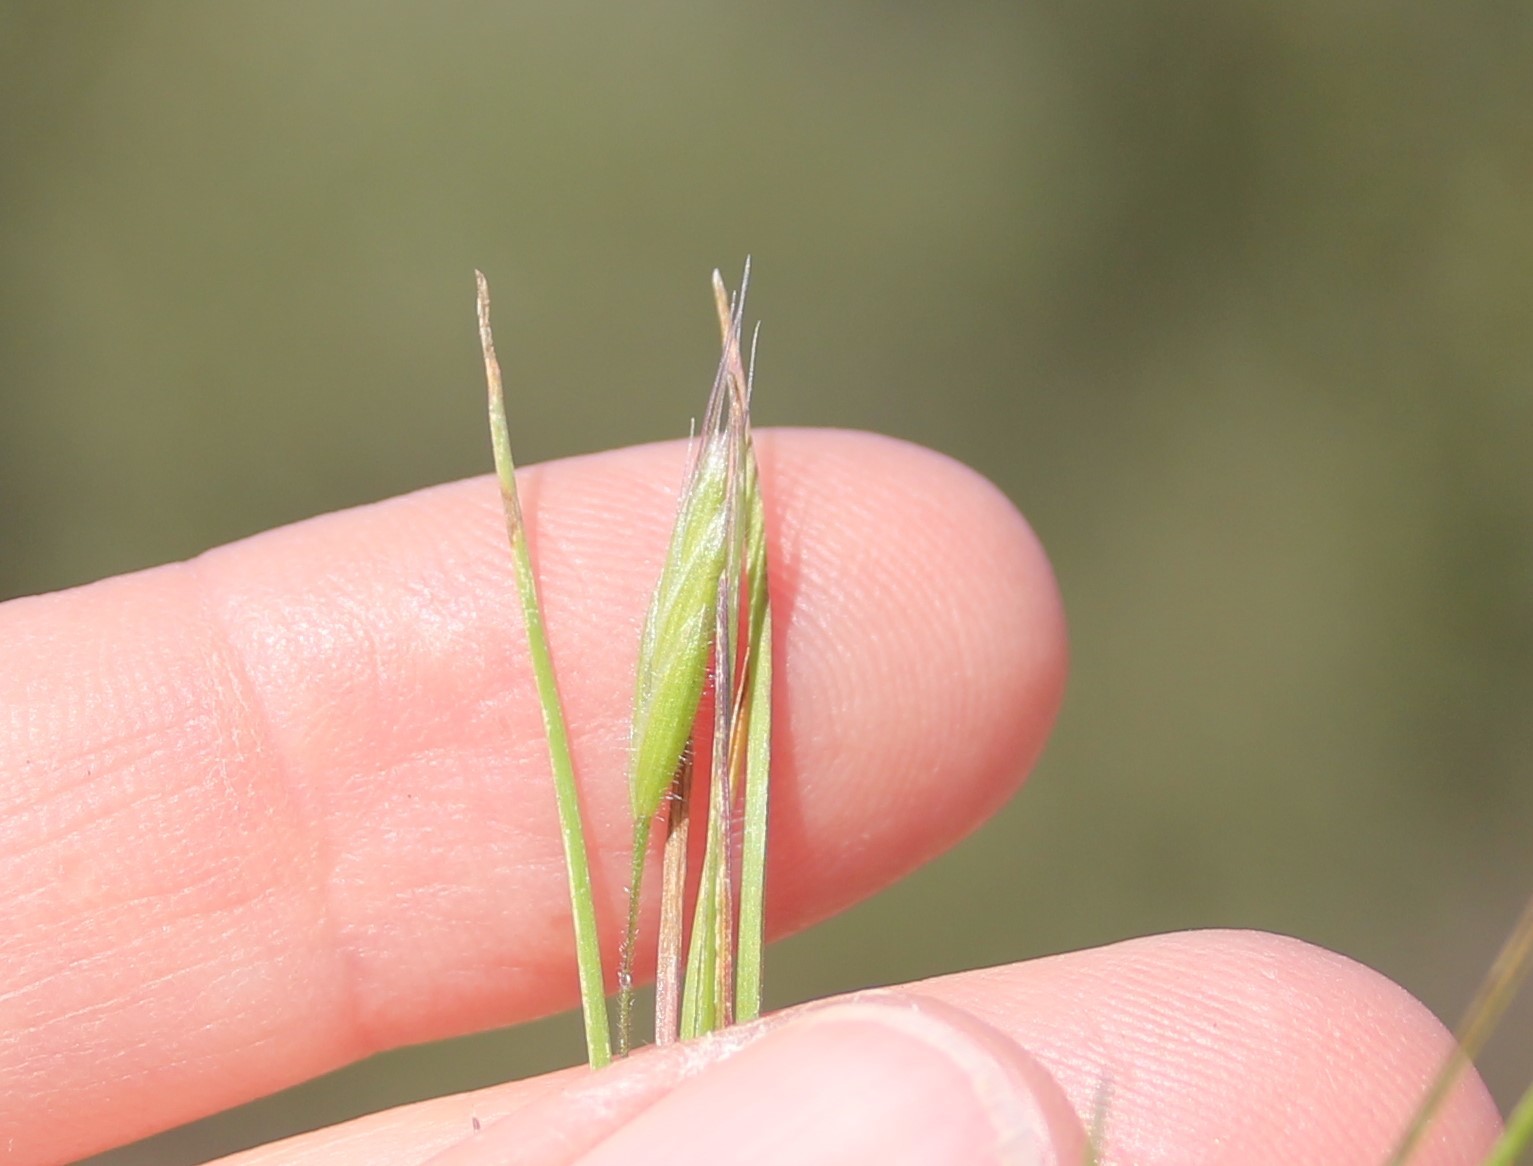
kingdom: Plantae
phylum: Tracheophyta
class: Liliopsida
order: Poales
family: Poaceae
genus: Bromus
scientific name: Bromus hordeaceus
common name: Soft brome
